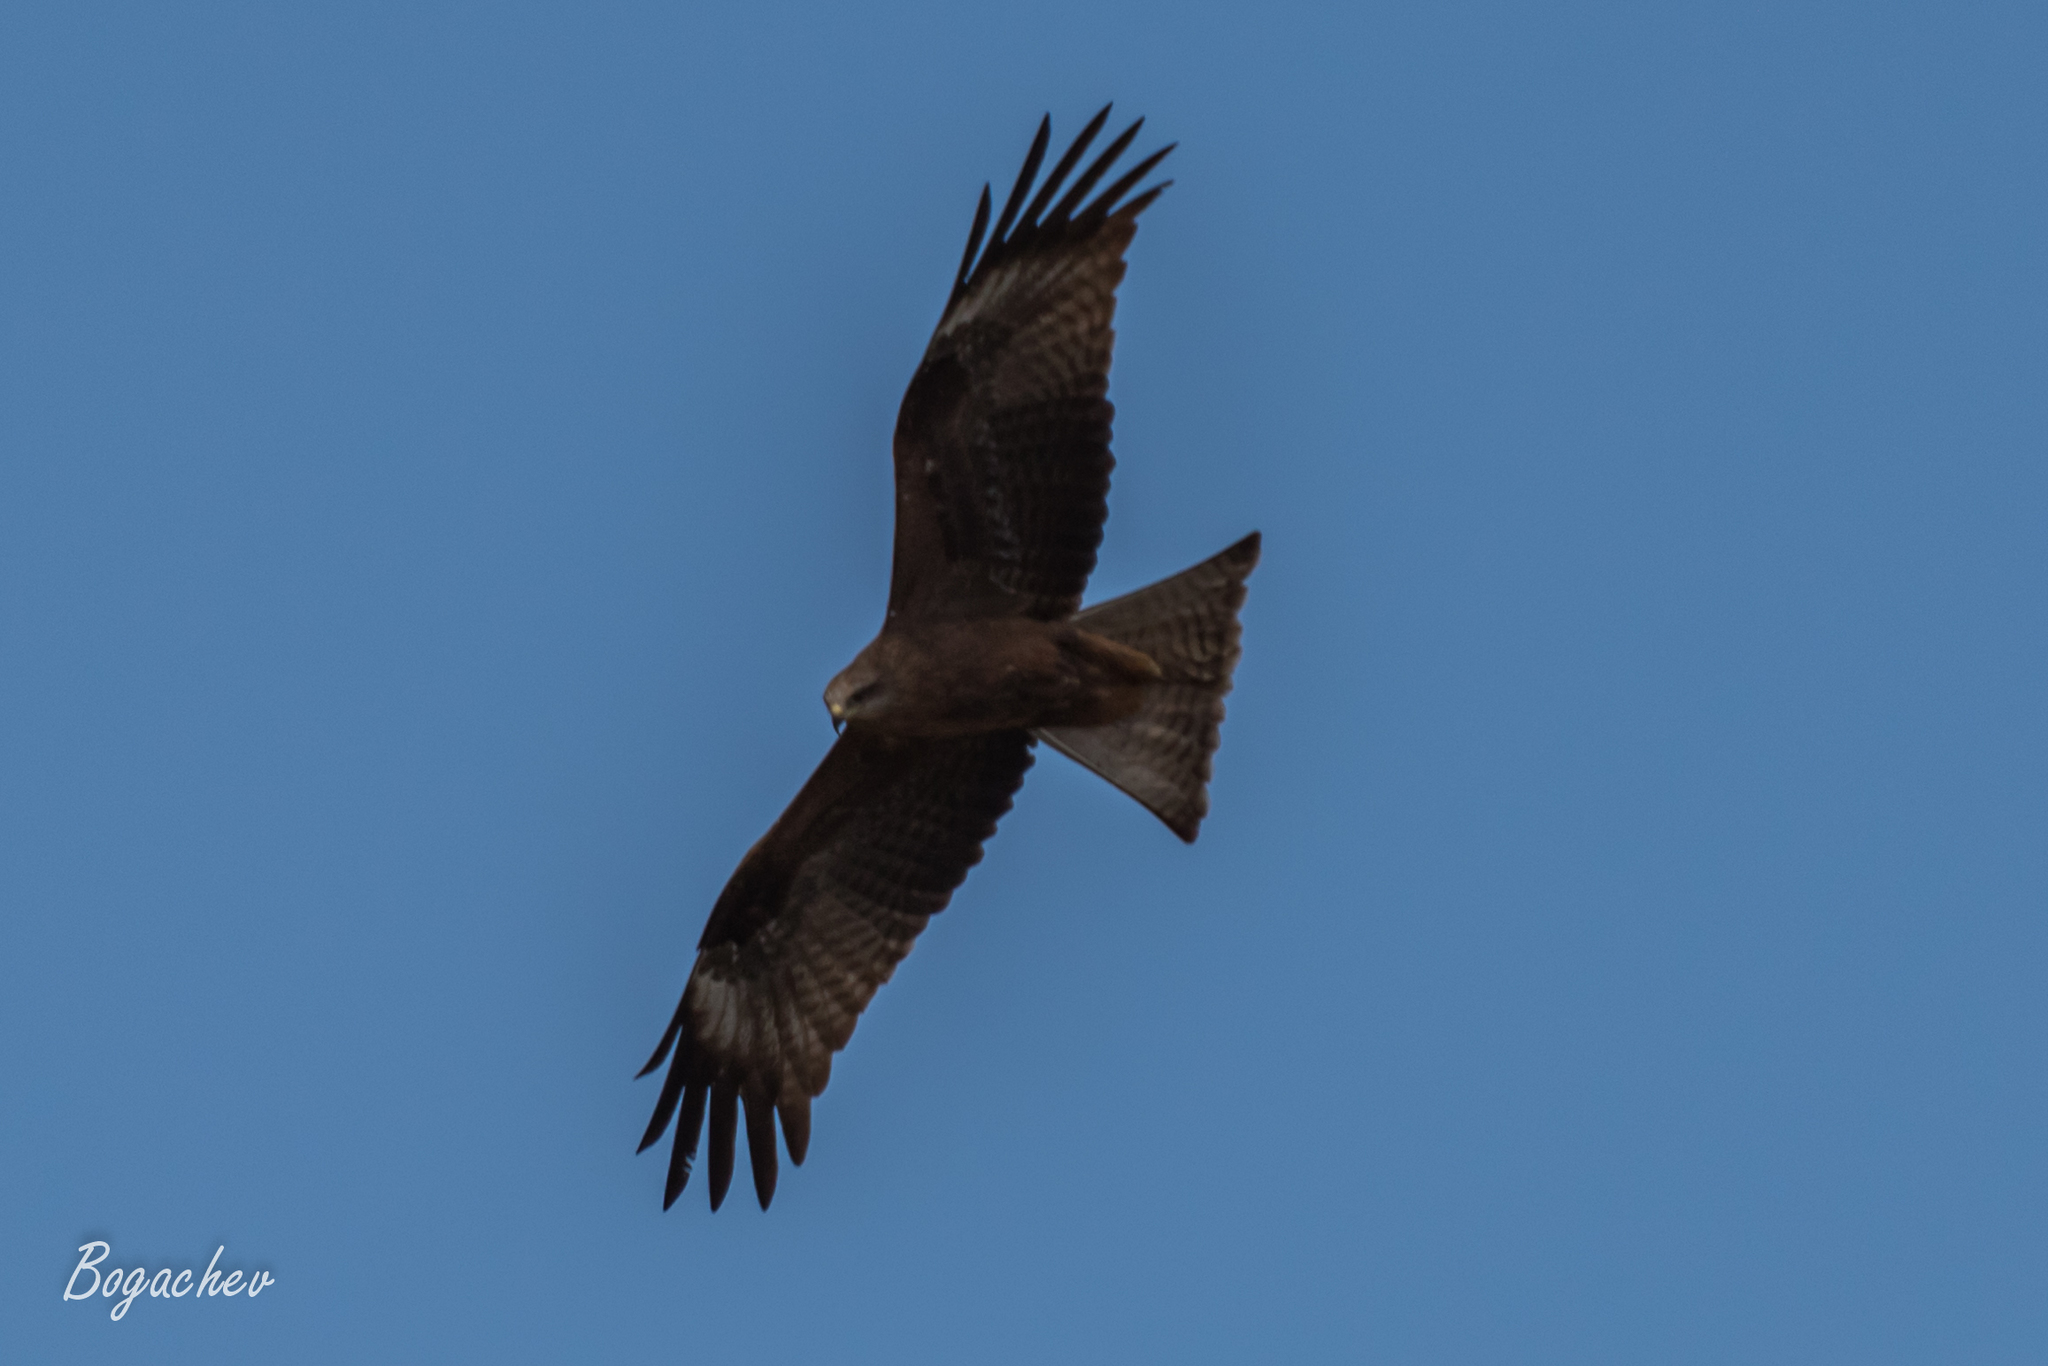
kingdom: Animalia
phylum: Chordata
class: Aves
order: Accipitriformes
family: Accipitridae
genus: Milvus
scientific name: Milvus migrans
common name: Black kite
